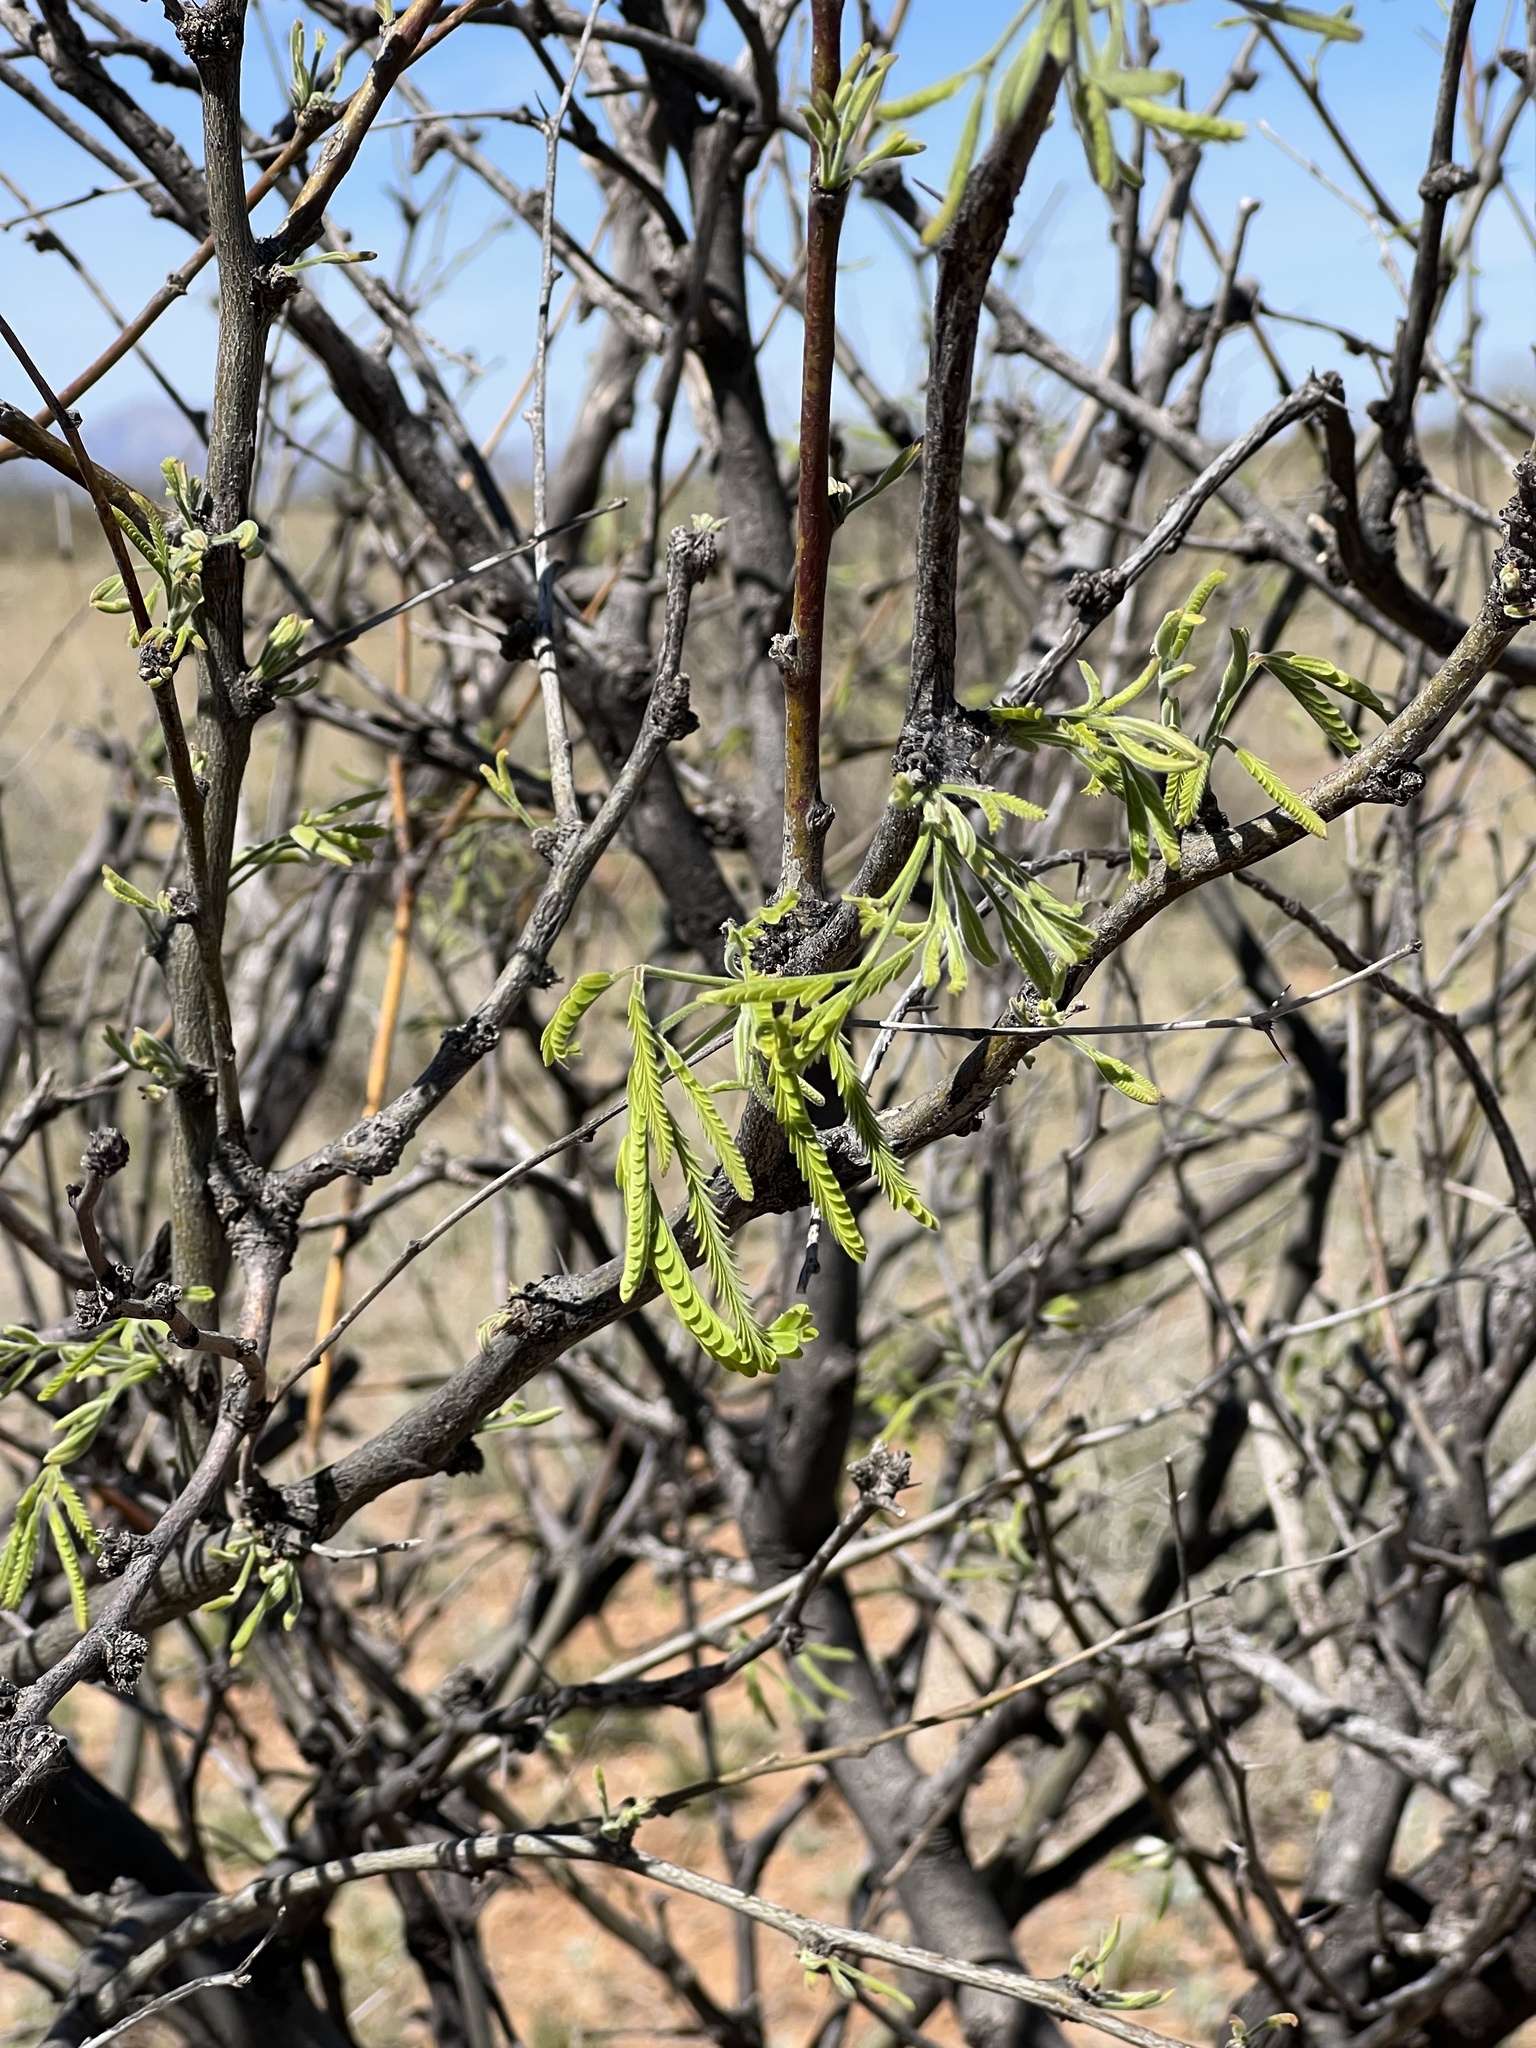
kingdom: Plantae
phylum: Tracheophyta
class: Magnoliopsida
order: Fabales
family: Fabaceae
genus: Prosopis
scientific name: Prosopis velutina
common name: Velvet mesquite
